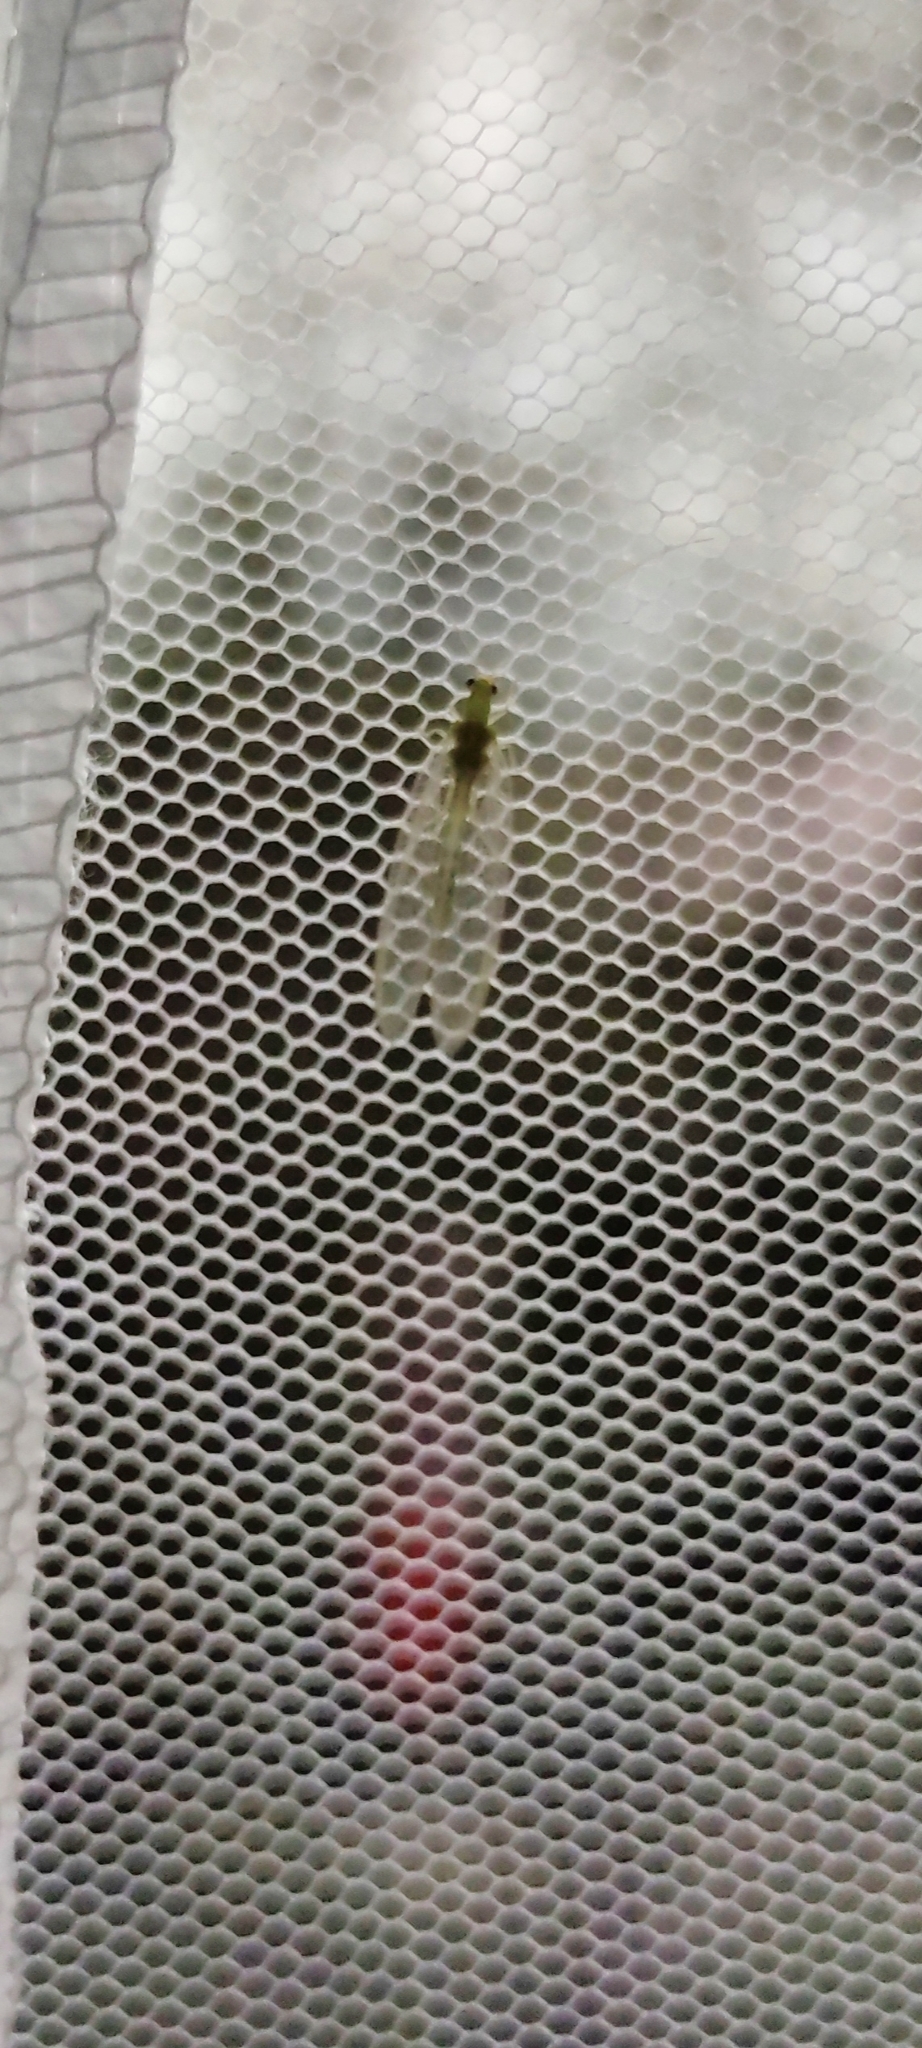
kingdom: Animalia
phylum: Arthropoda
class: Insecta
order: Neuroptera
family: Chrysopidae
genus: Chrysoperla
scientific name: Chrysoperla
